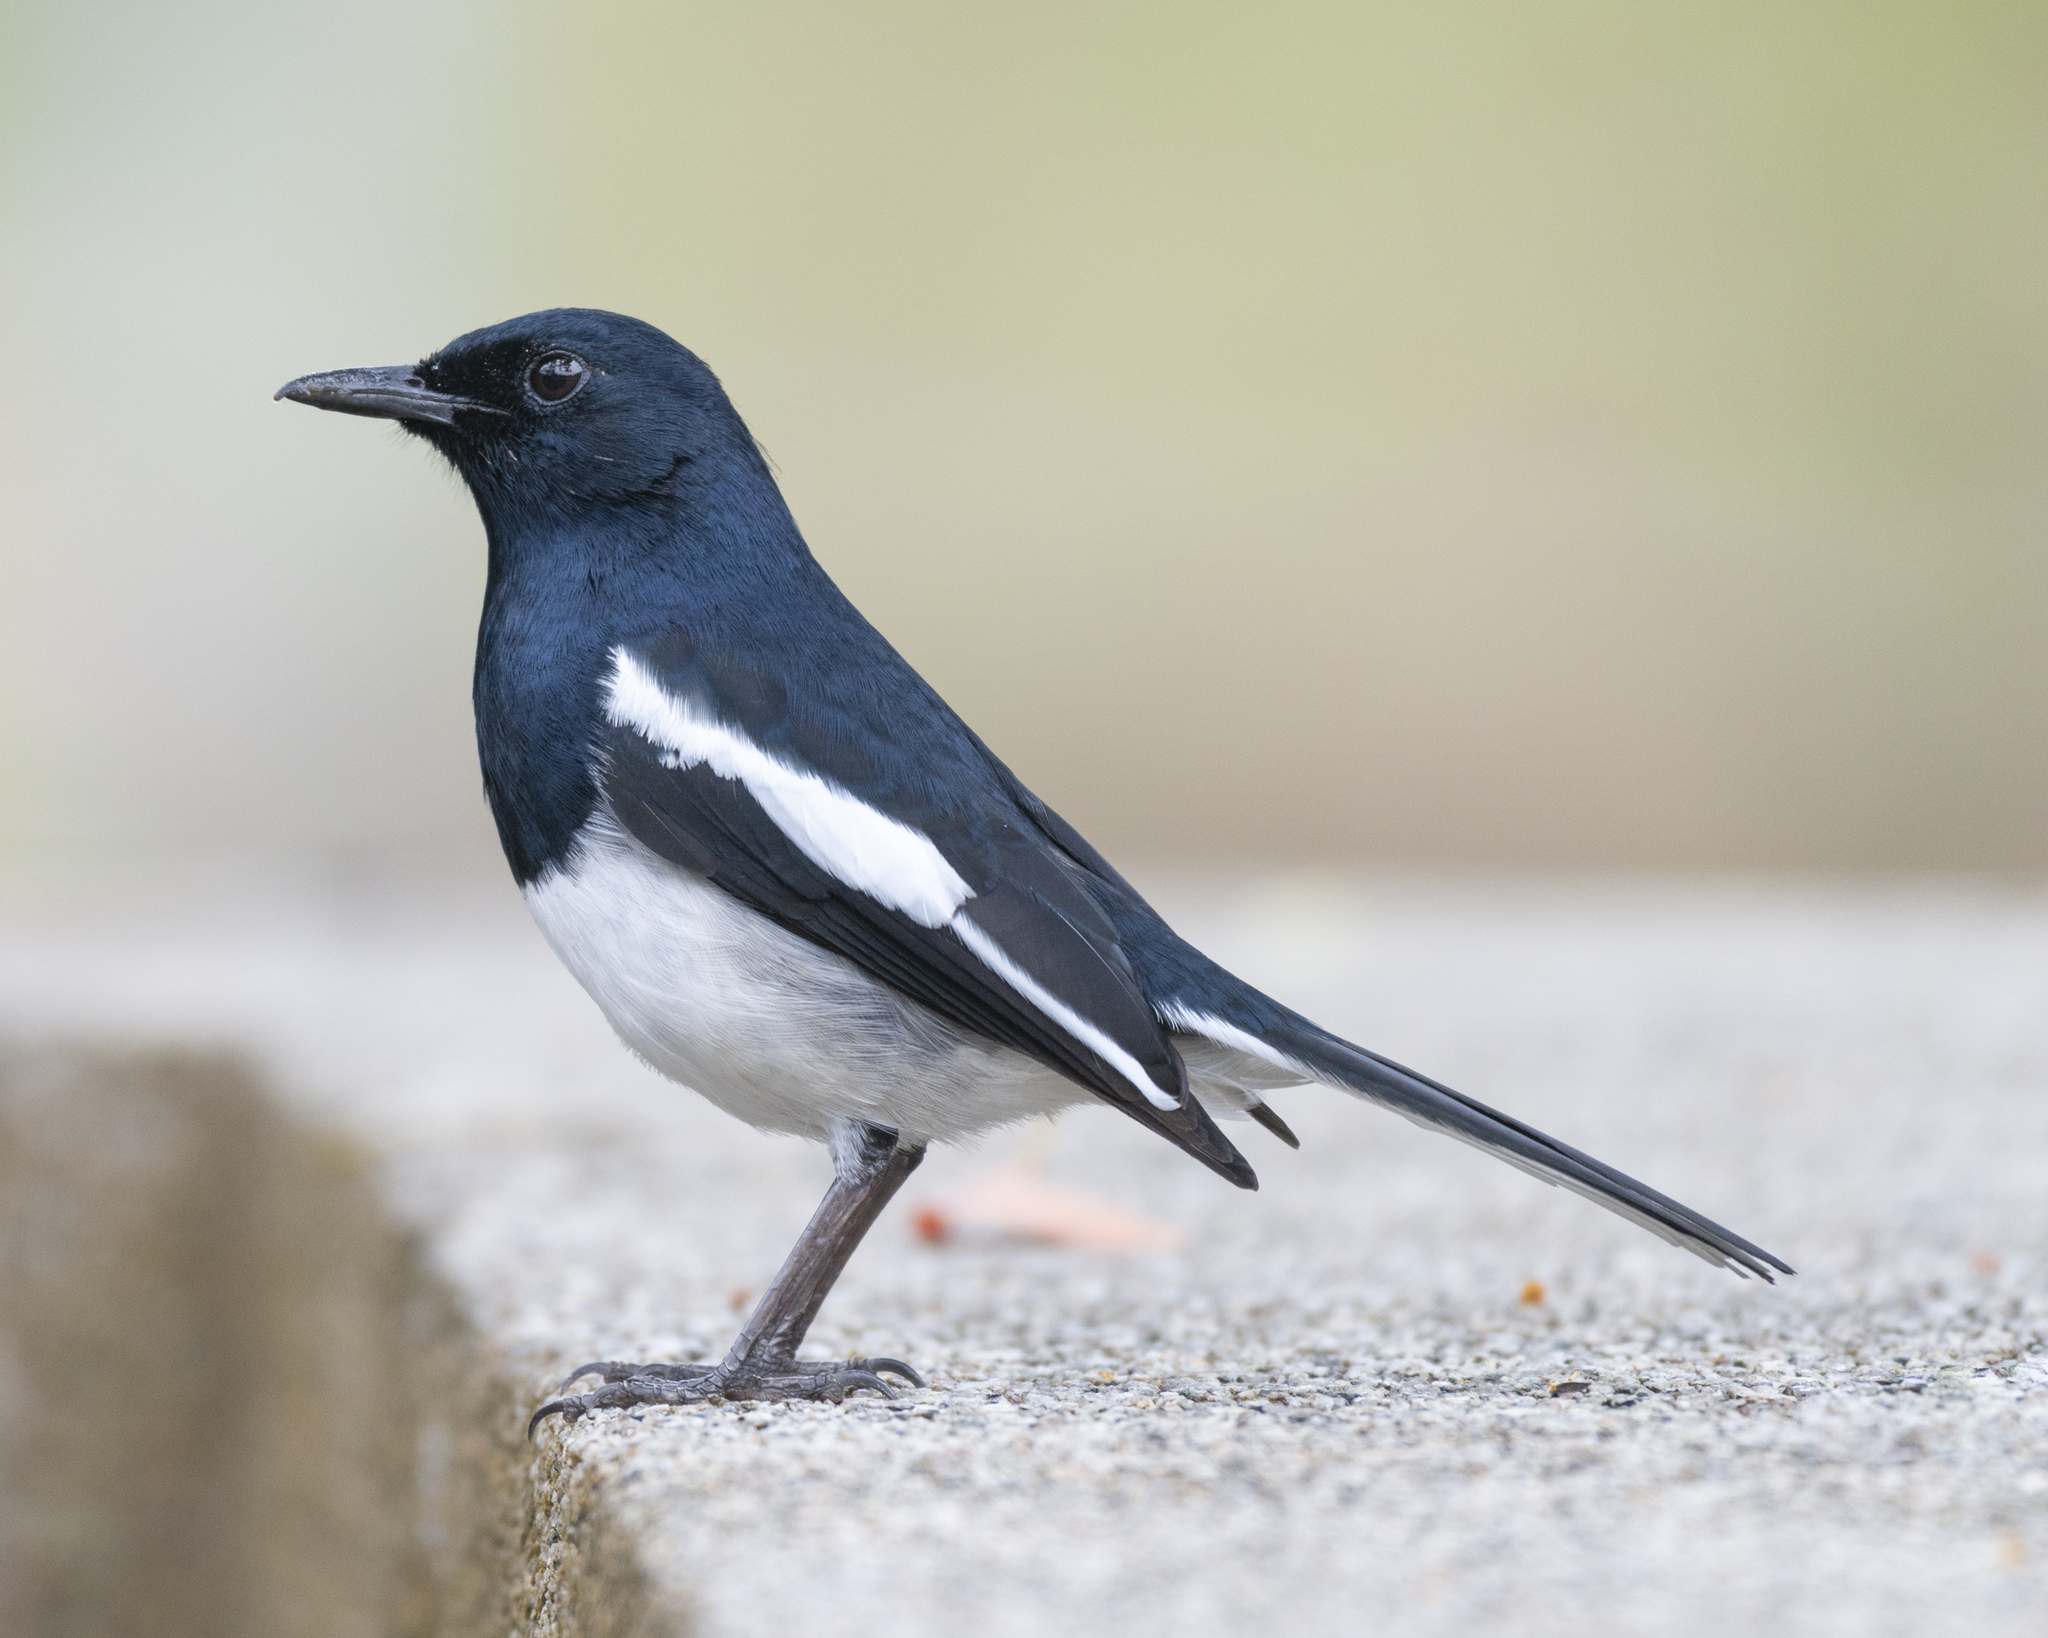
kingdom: Animalia
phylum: Chordata
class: Aves
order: Passeriformes
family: Muscicapidae
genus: Copsychus
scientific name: Copsychus saularis
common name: Oriental magpie-robin
